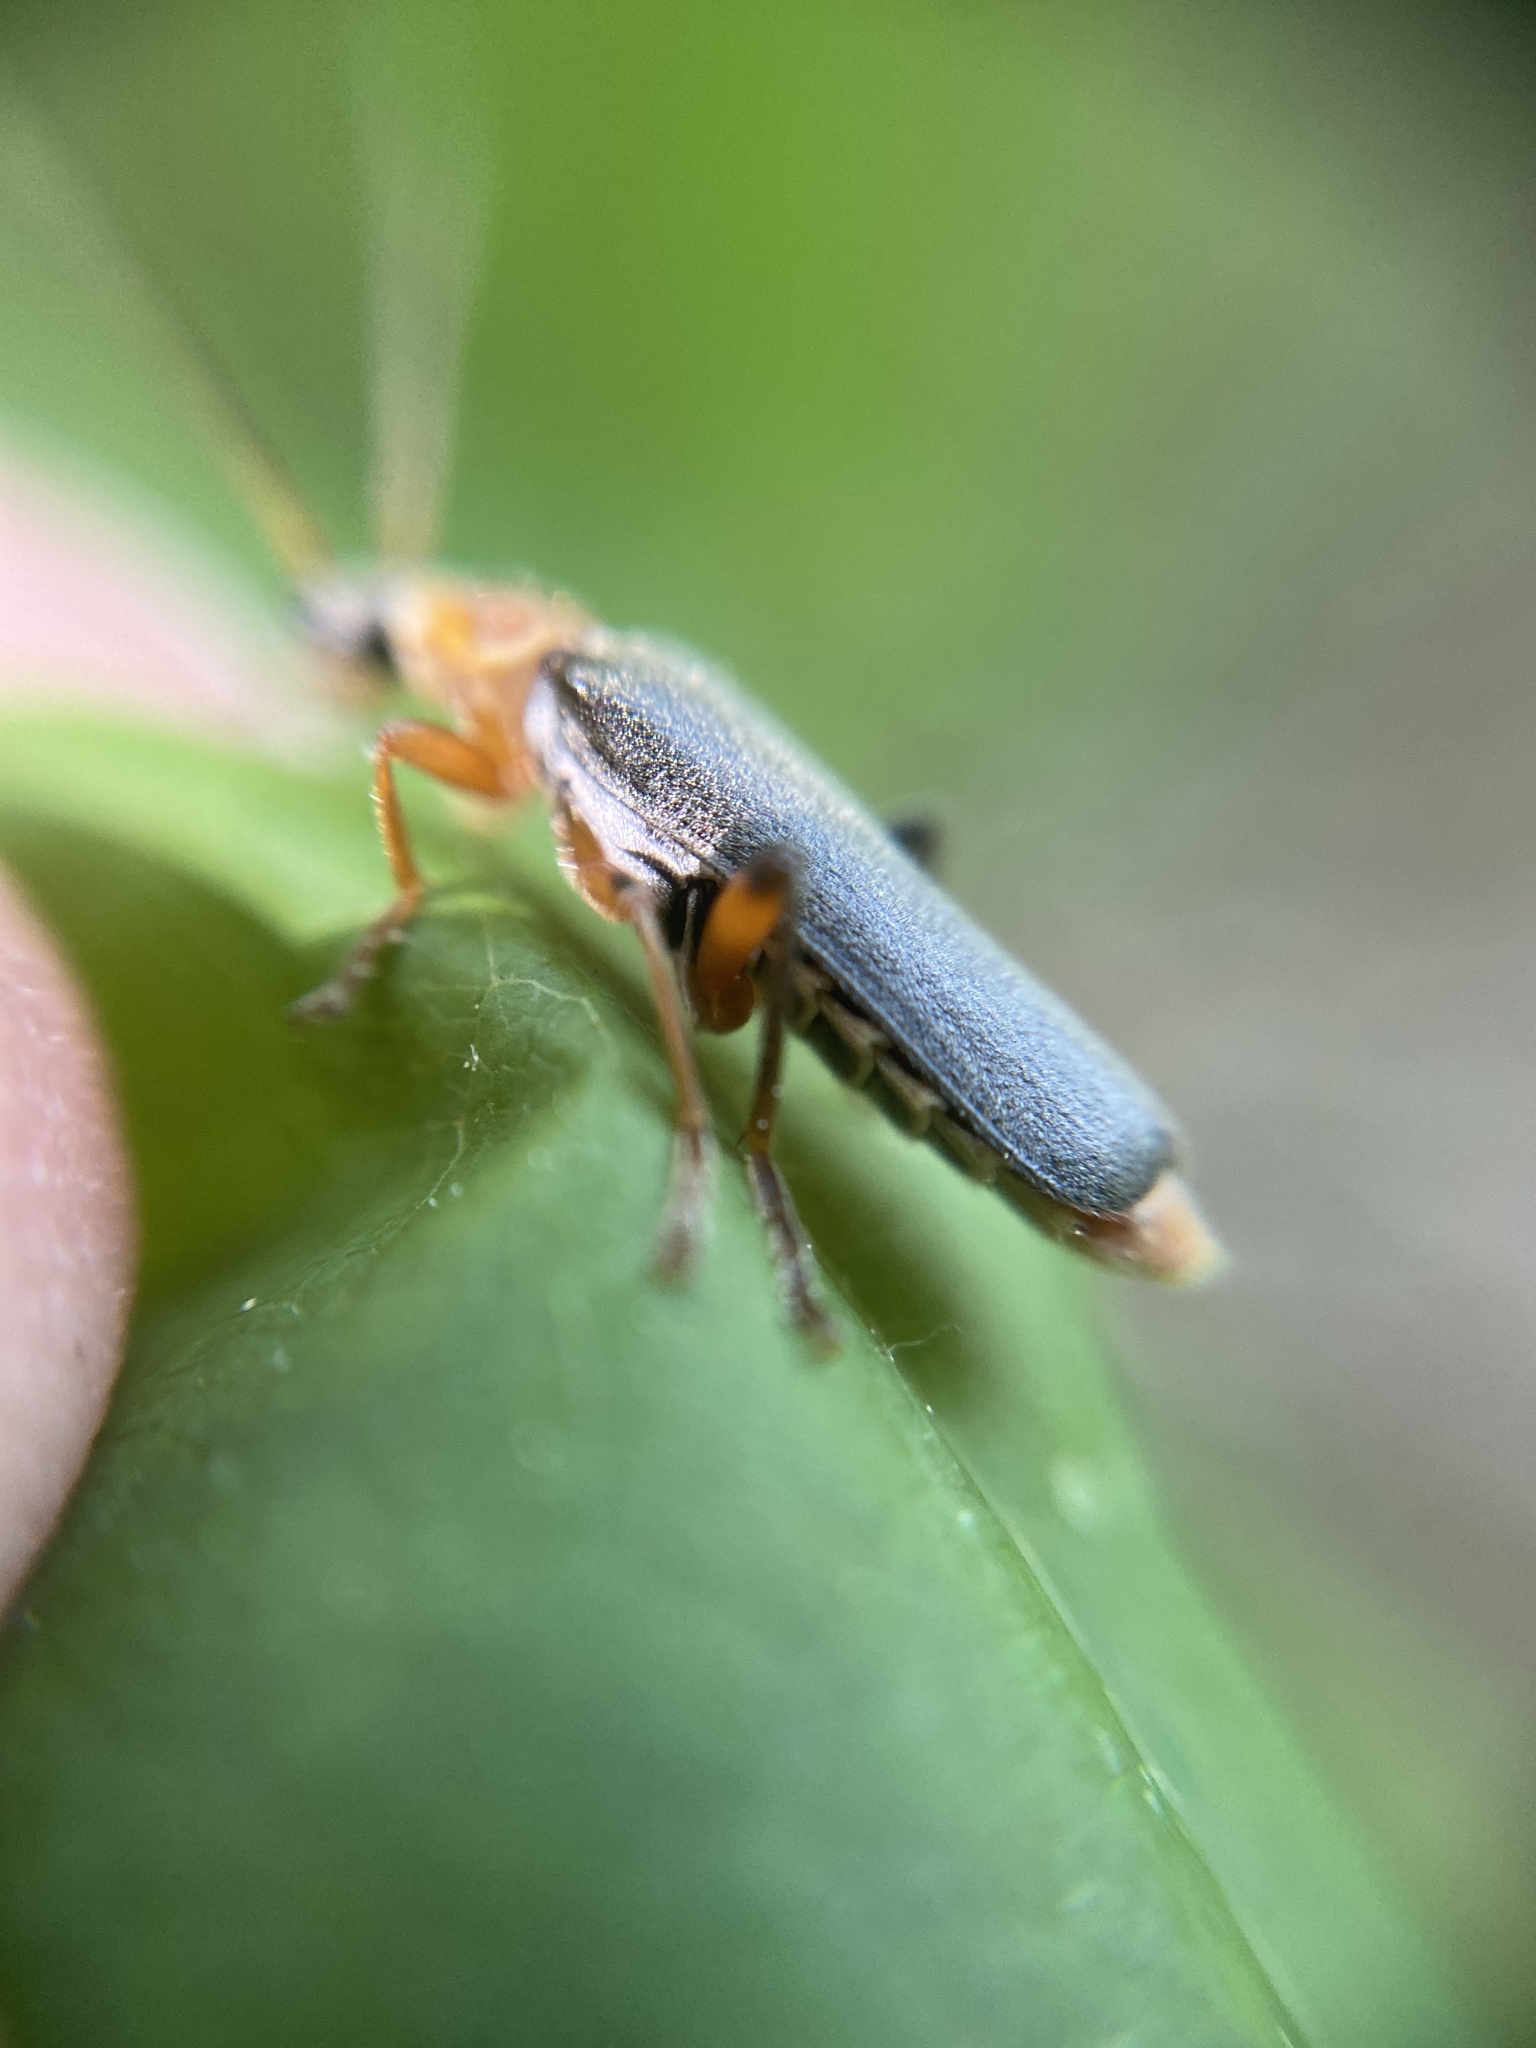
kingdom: Animalia
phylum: Arthropoda
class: Insecta
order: Coleoptera
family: Cantharidae
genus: Cantharis
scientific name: Cantharis nigricans
